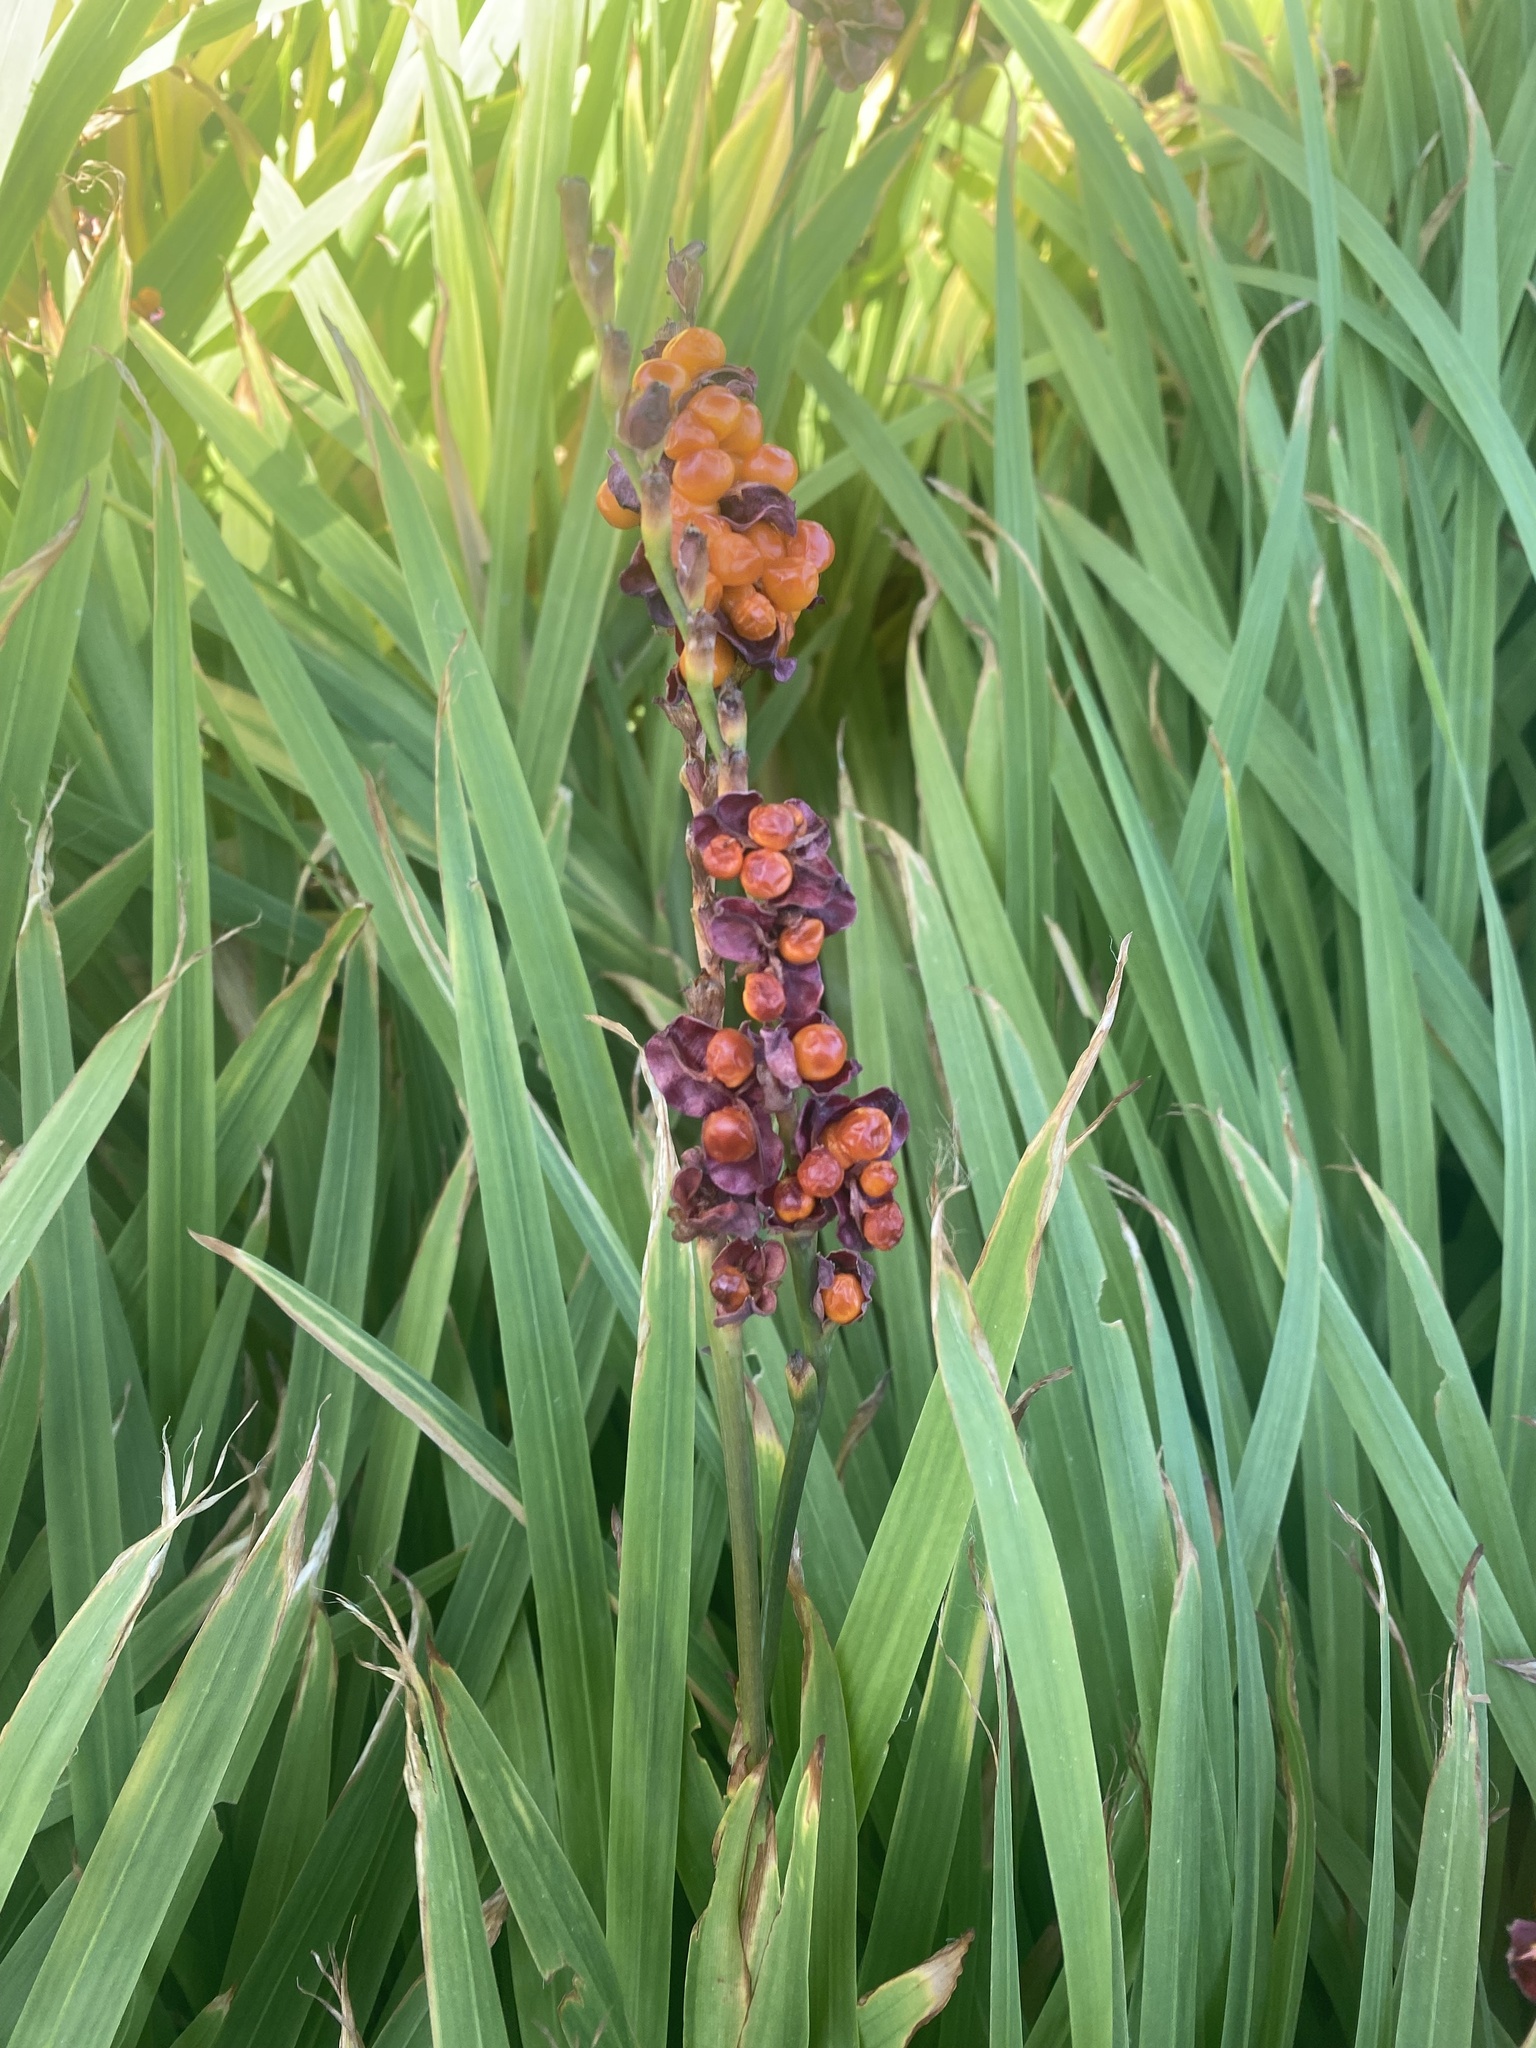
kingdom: Plantae
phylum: Tracheophyta
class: Liliopsida
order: Asparagales
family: Iridaceae
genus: Chasmanthe
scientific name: Chasmanthe aethiopica
